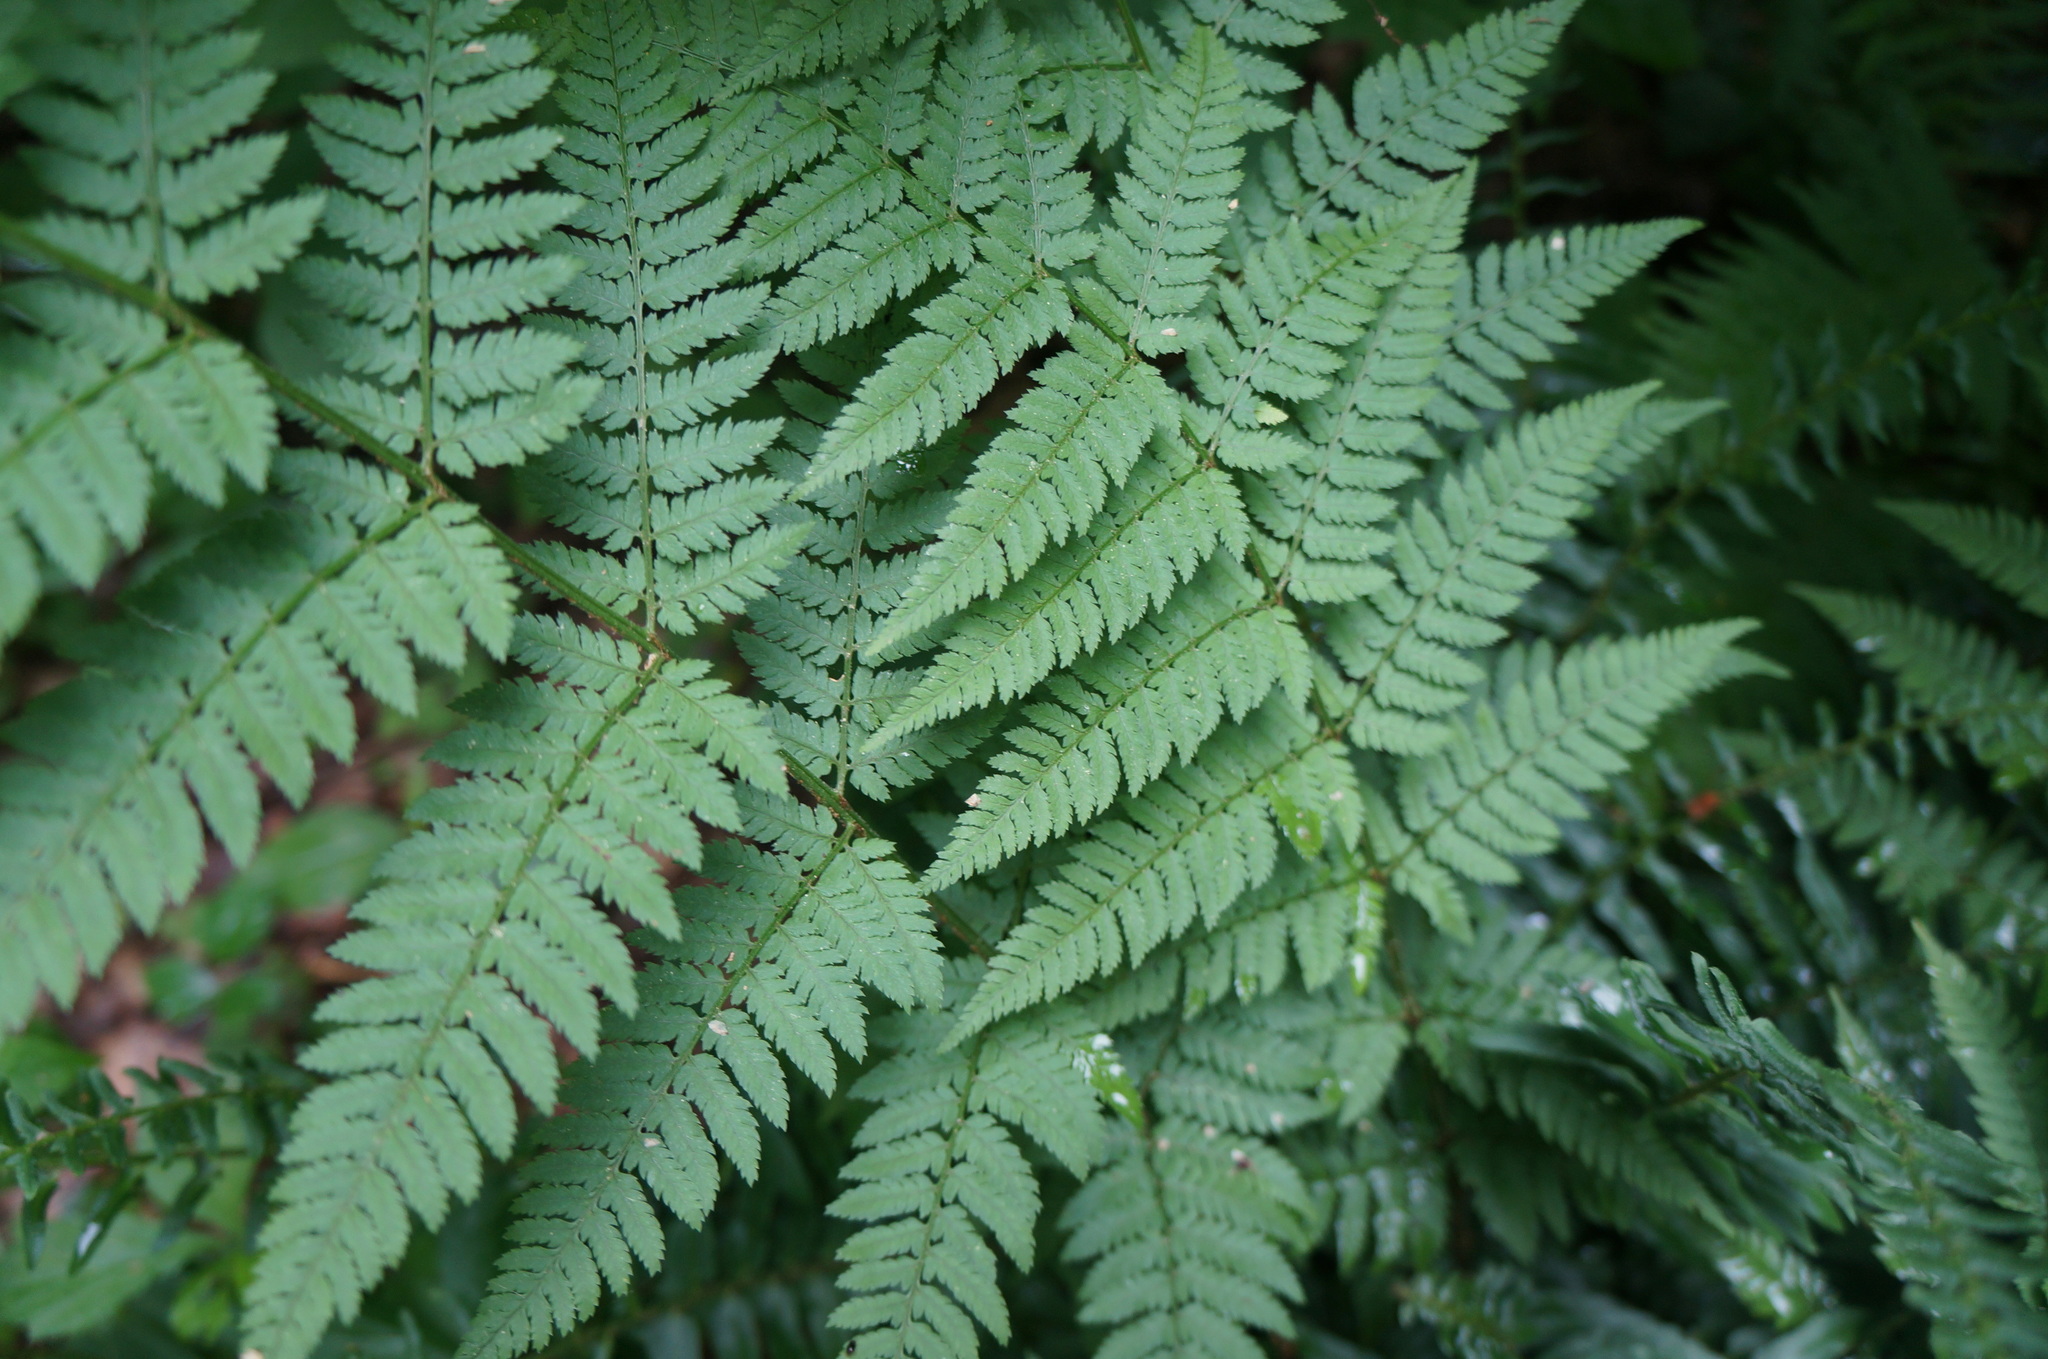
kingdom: Plantae
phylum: Tracheophyta
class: Polypodiopsida
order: Polypodiales
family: Dryopteridaceae
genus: Dryopteris
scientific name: Dryopteris carthusiana
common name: Narrow buckler-fern
